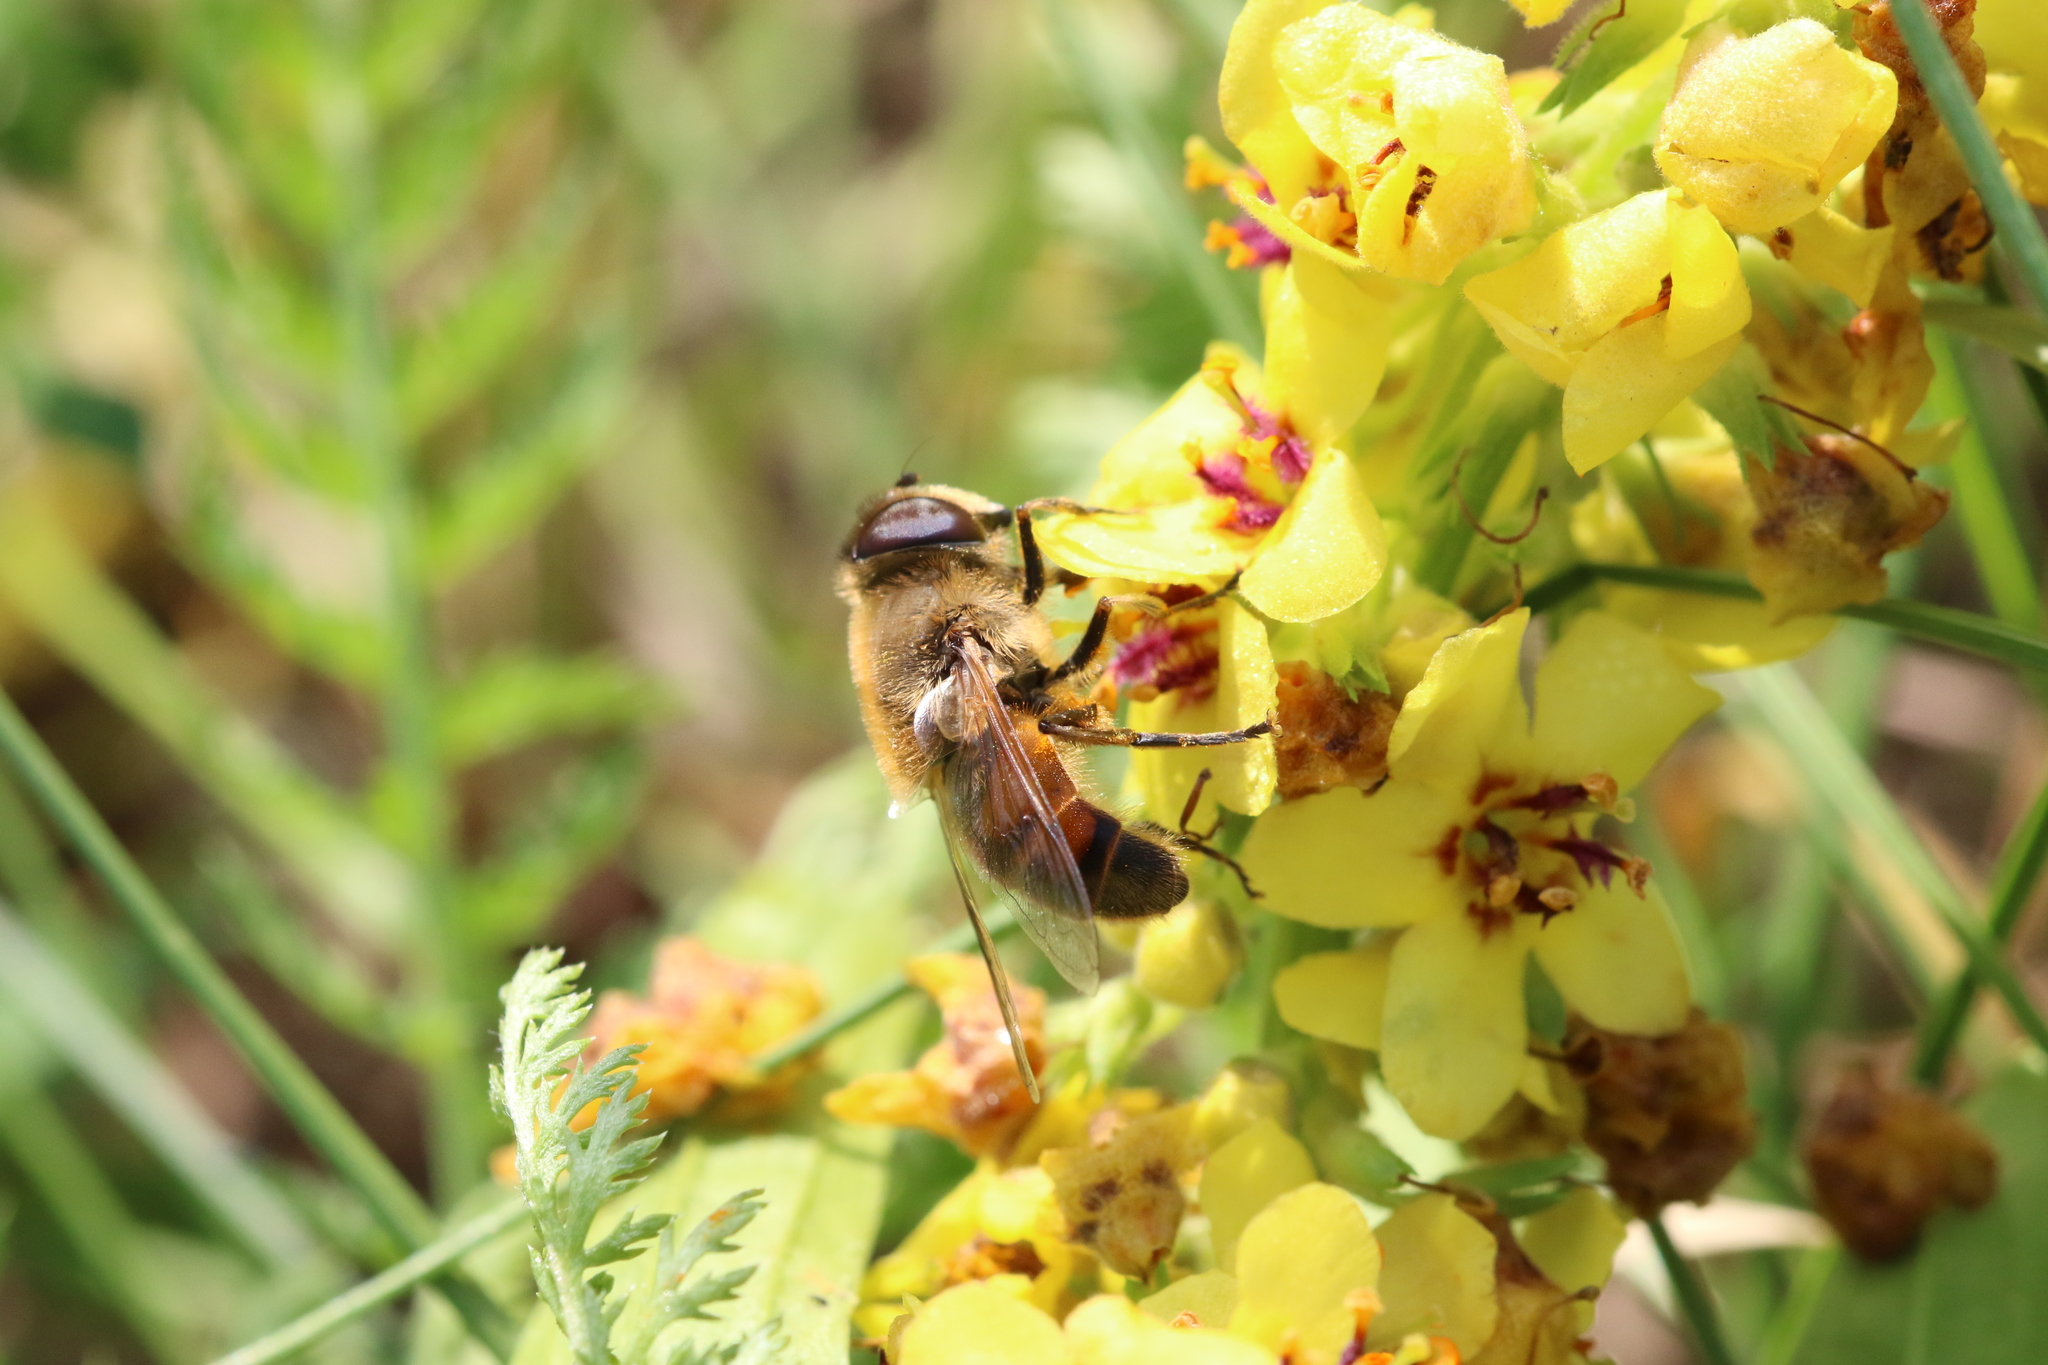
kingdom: Animalia
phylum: Arthropoda
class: Insecta
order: Diptera
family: Syrphidae
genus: Eristalis
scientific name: Eristalis tenax
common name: Drone fly
